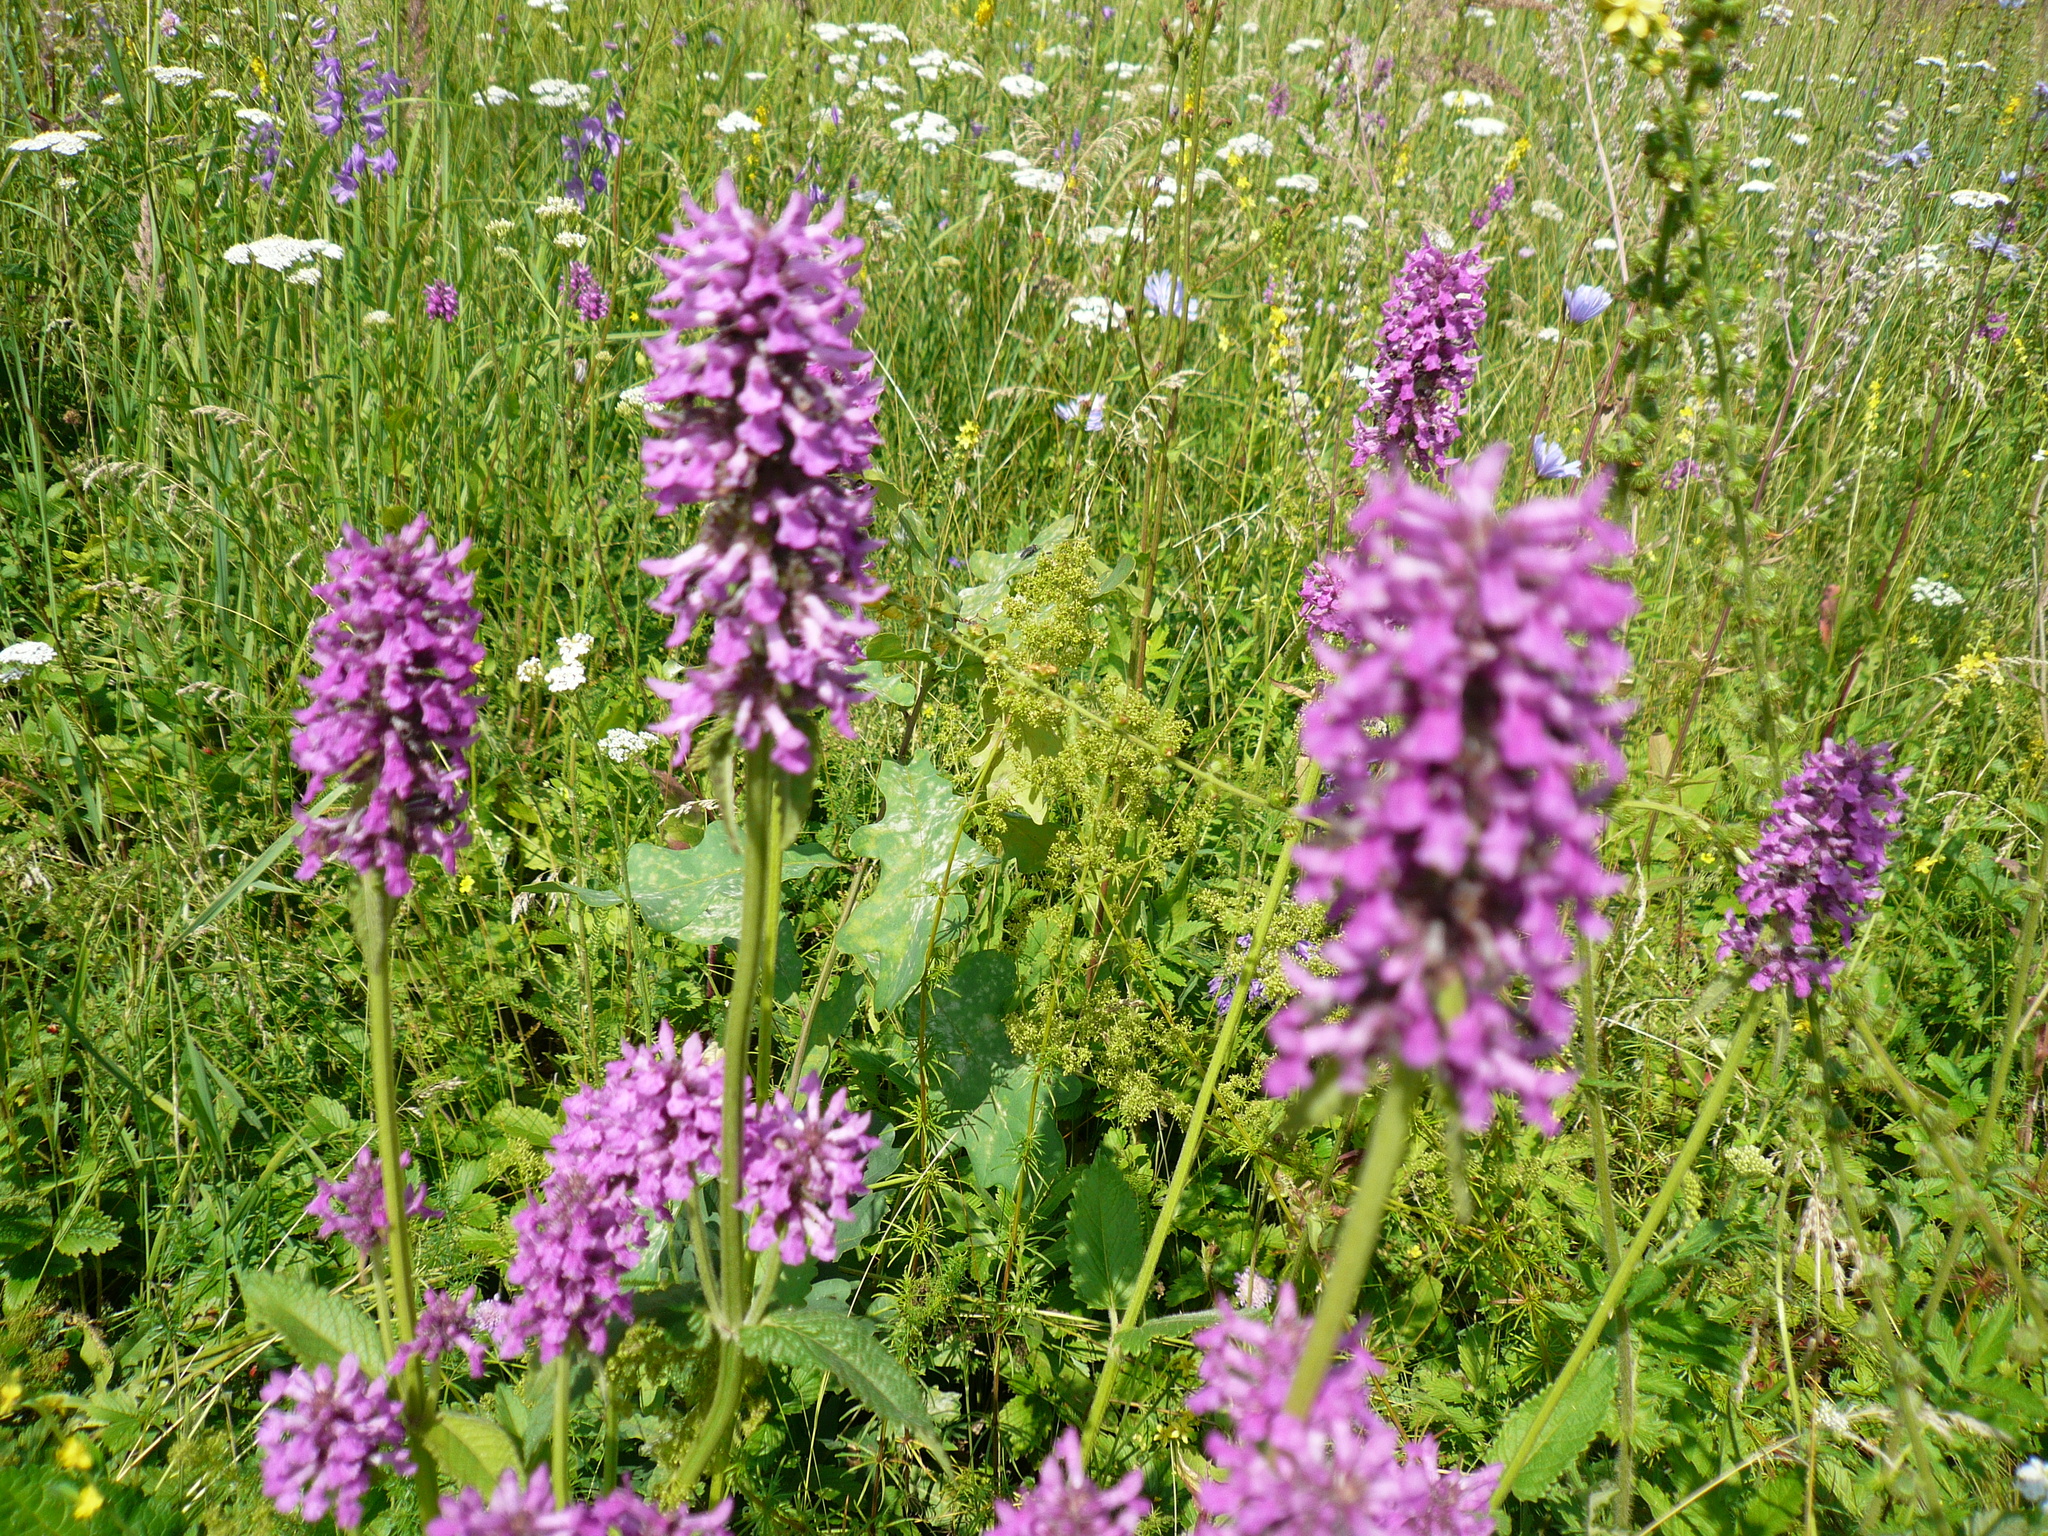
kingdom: Plantae
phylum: Tracheophyta
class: Magnoliopsida
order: Lamiales
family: Lamiaceae
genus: Betonica
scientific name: Betonica officinalis
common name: Bishop's-wort
